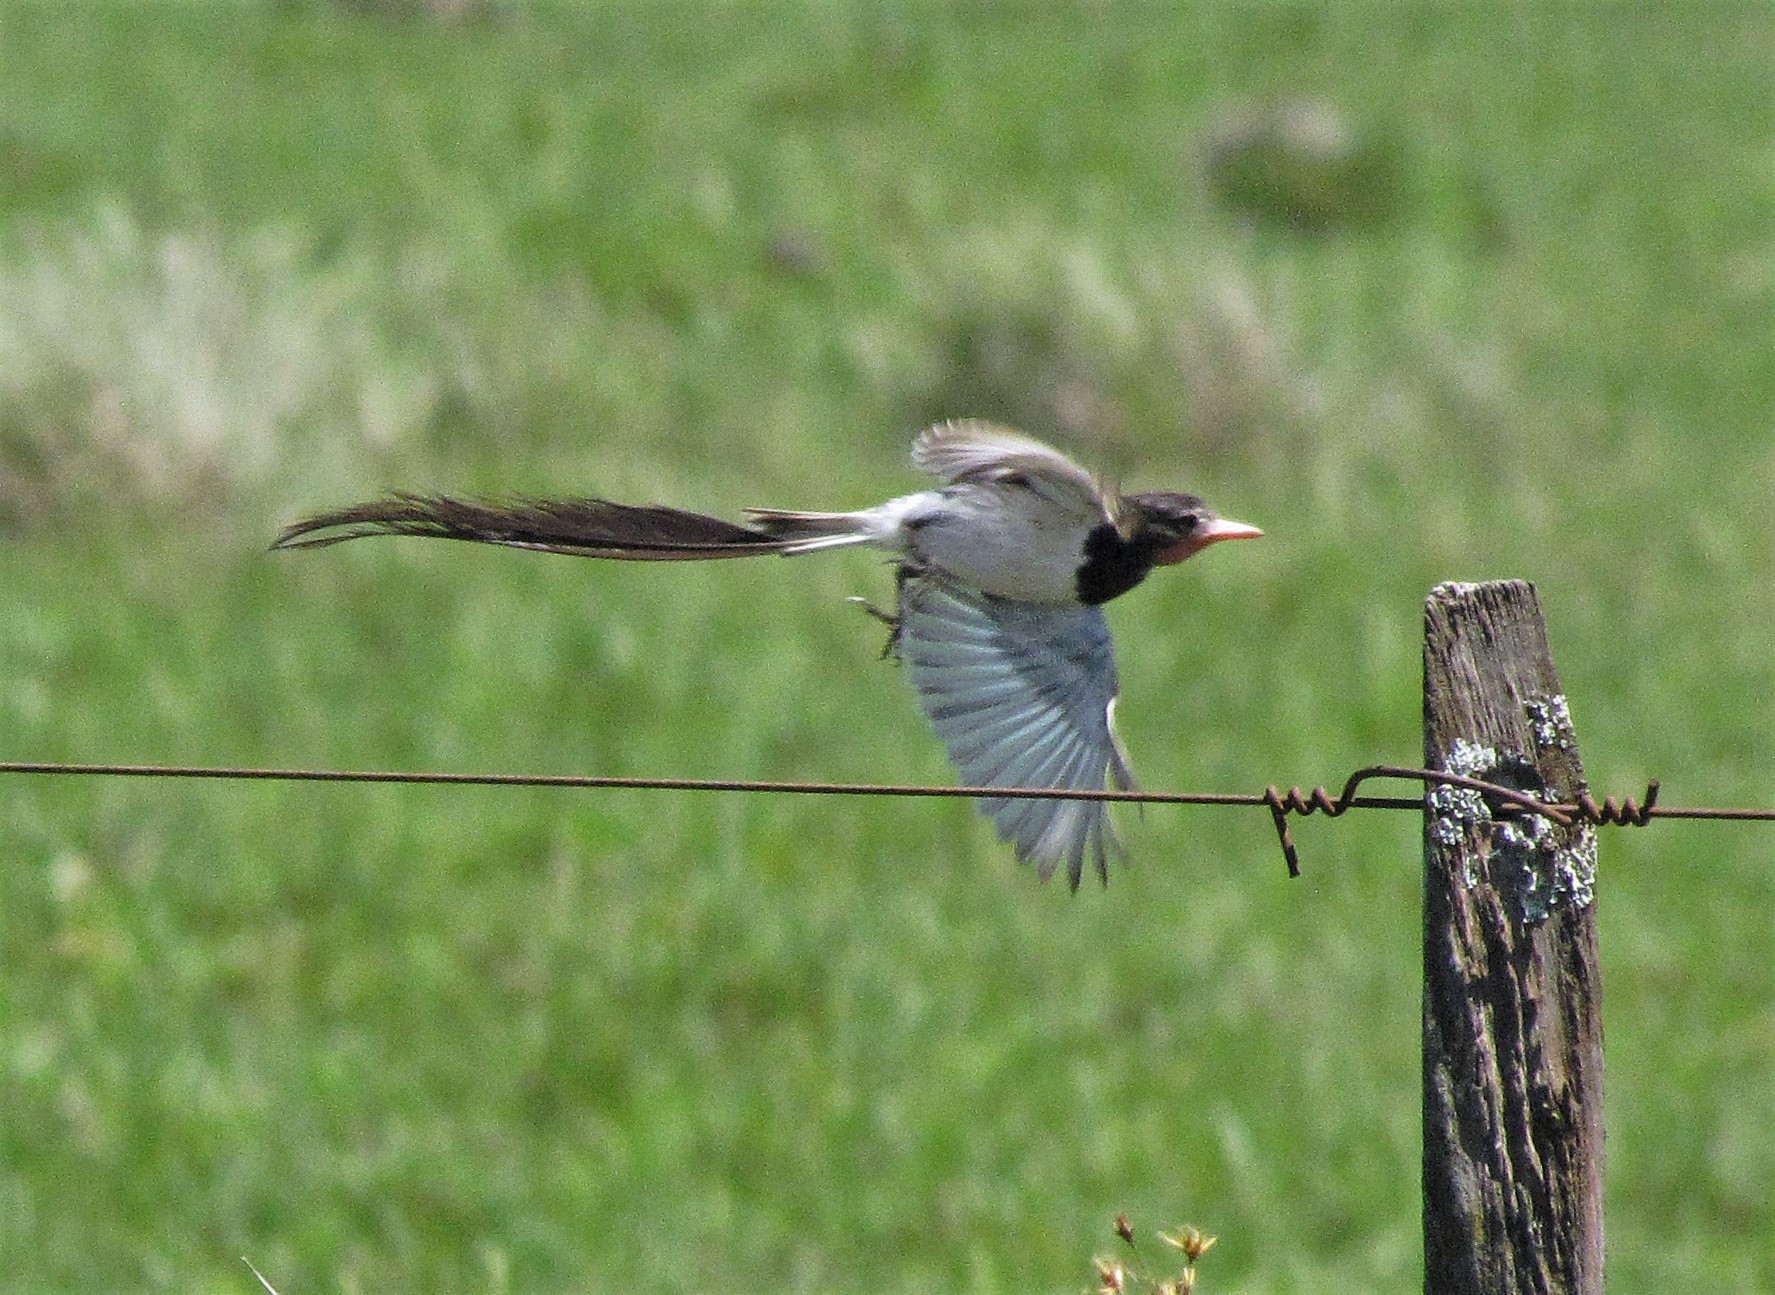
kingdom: Animalia
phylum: Chordata
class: Aves
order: Passeriformes
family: Tyrannidae
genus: Alectrurus
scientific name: Alectrurus risora
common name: Strange-tailed tyrant
